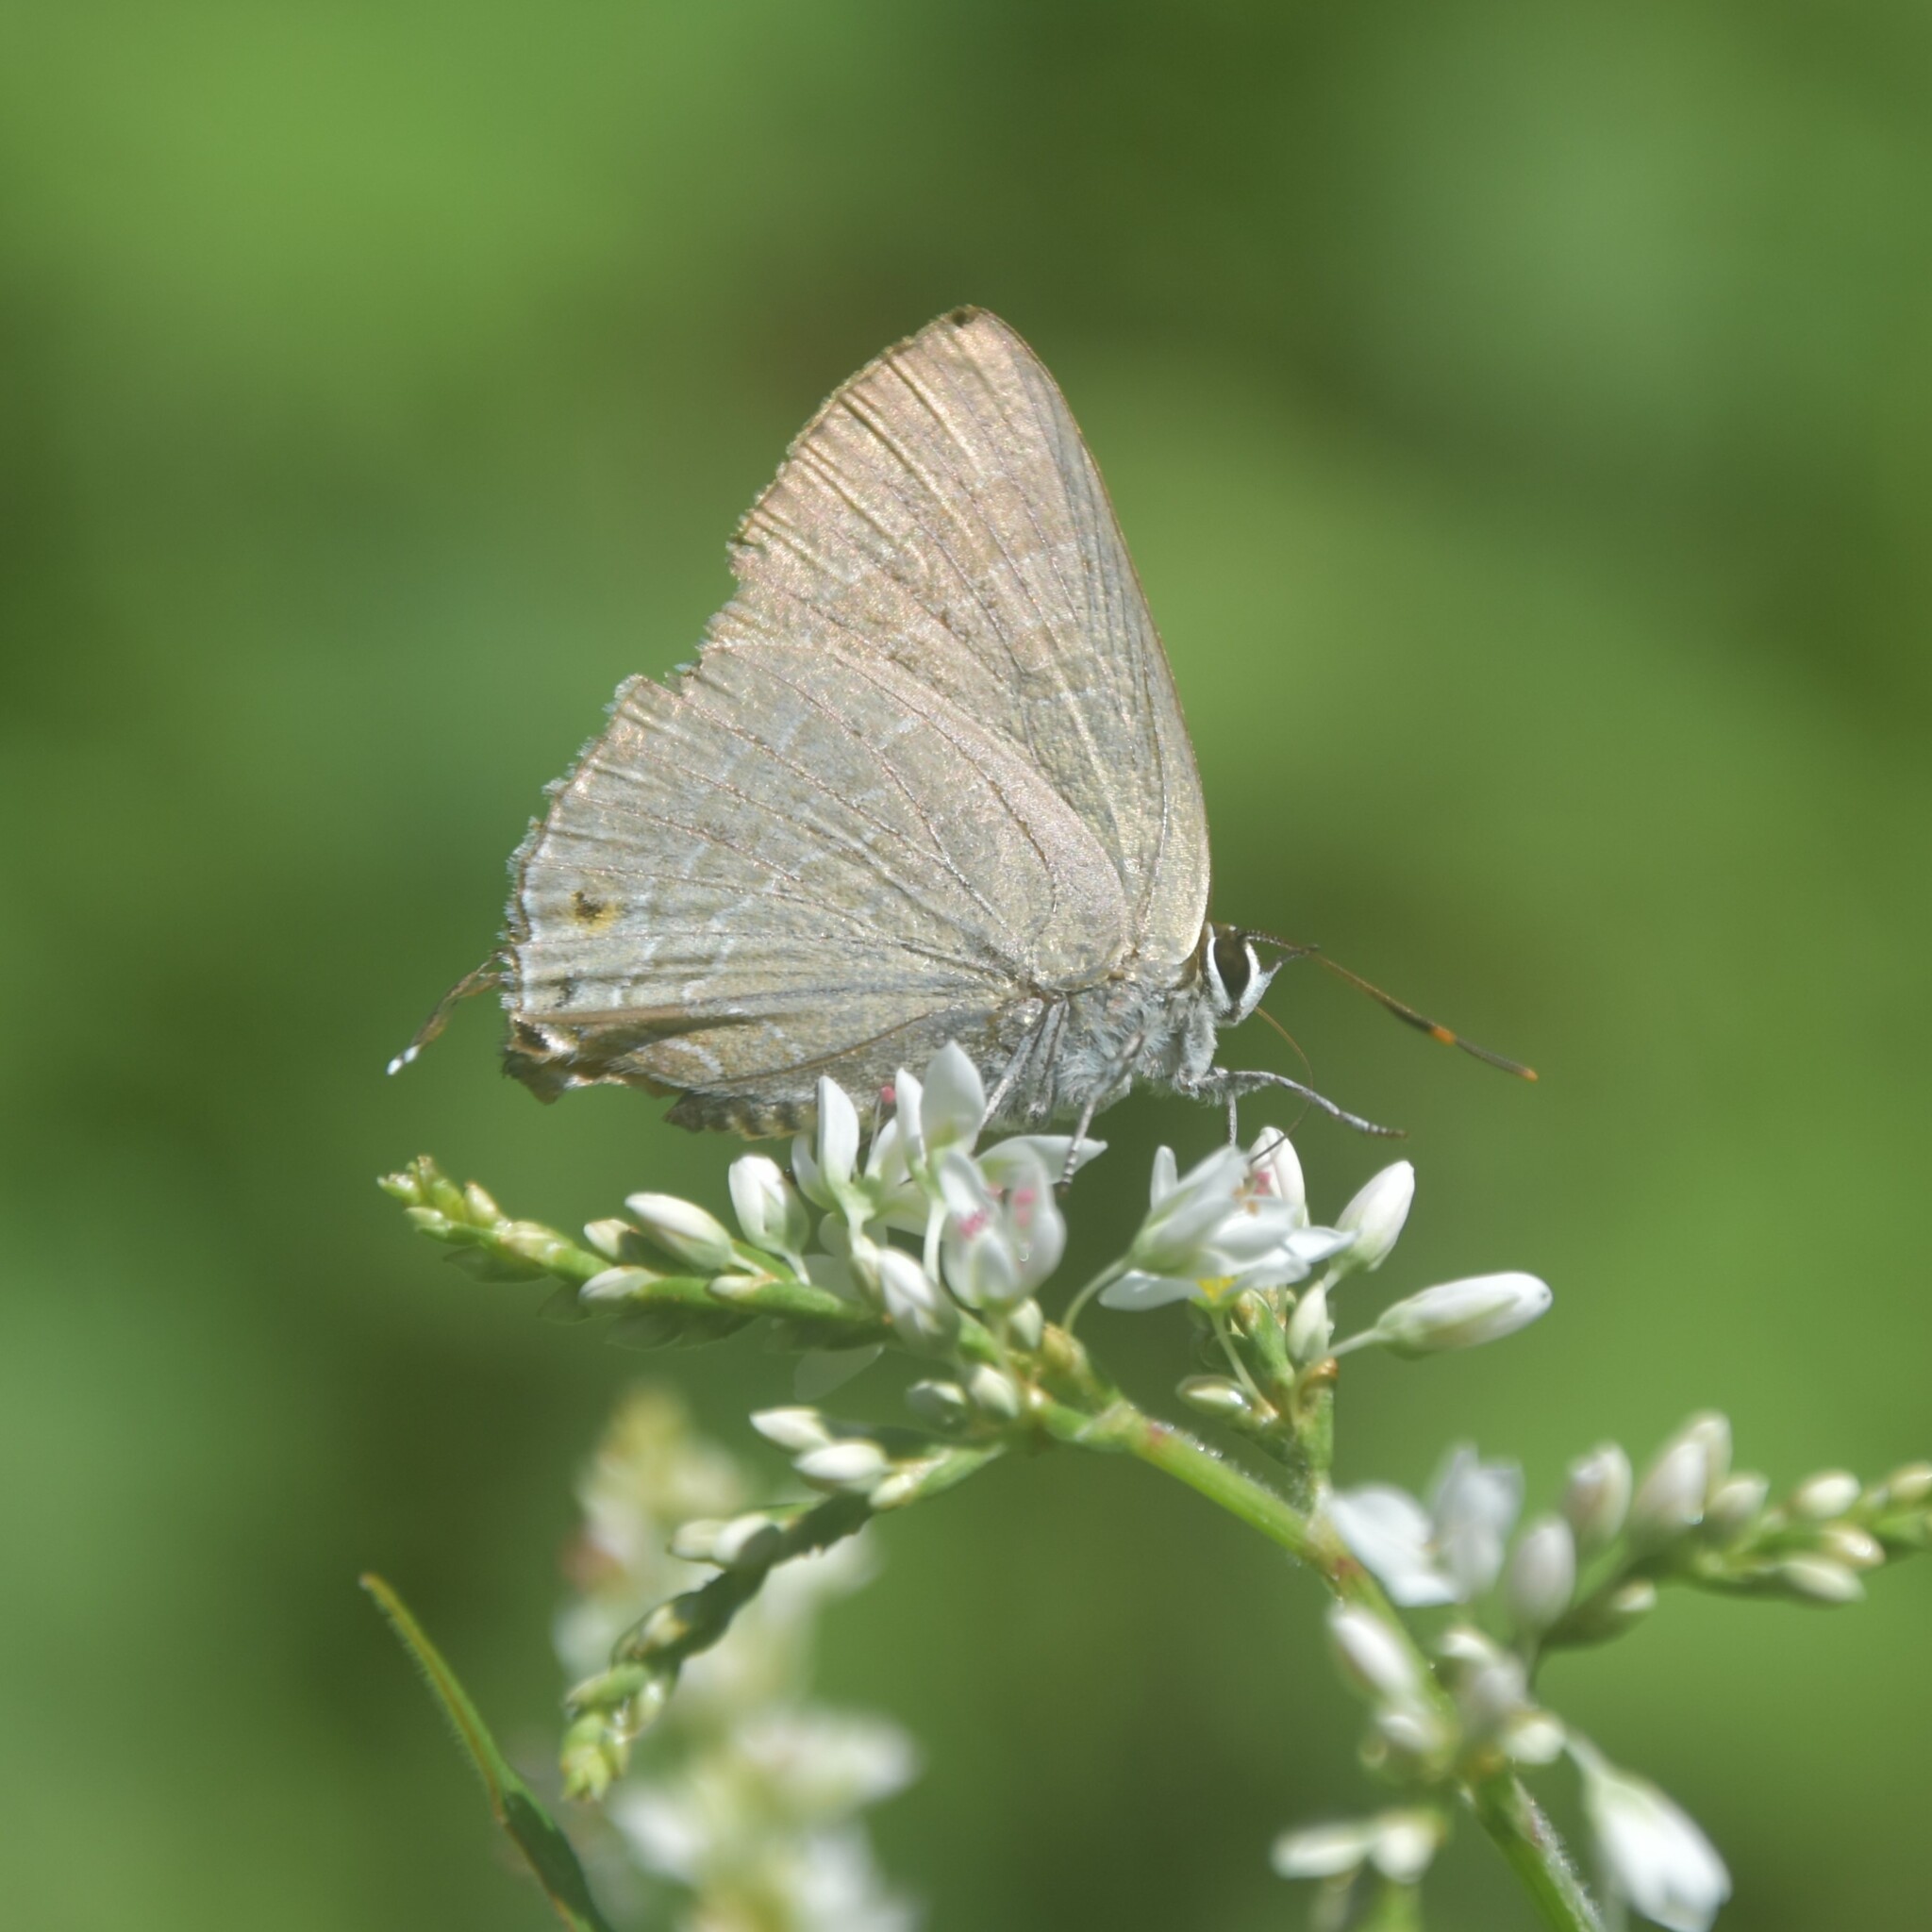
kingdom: Animalia
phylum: Arthropoda
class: Insecta
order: Lepidoptera
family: Lycaenidae
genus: Deudorix
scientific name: Deudorix epijarbas
